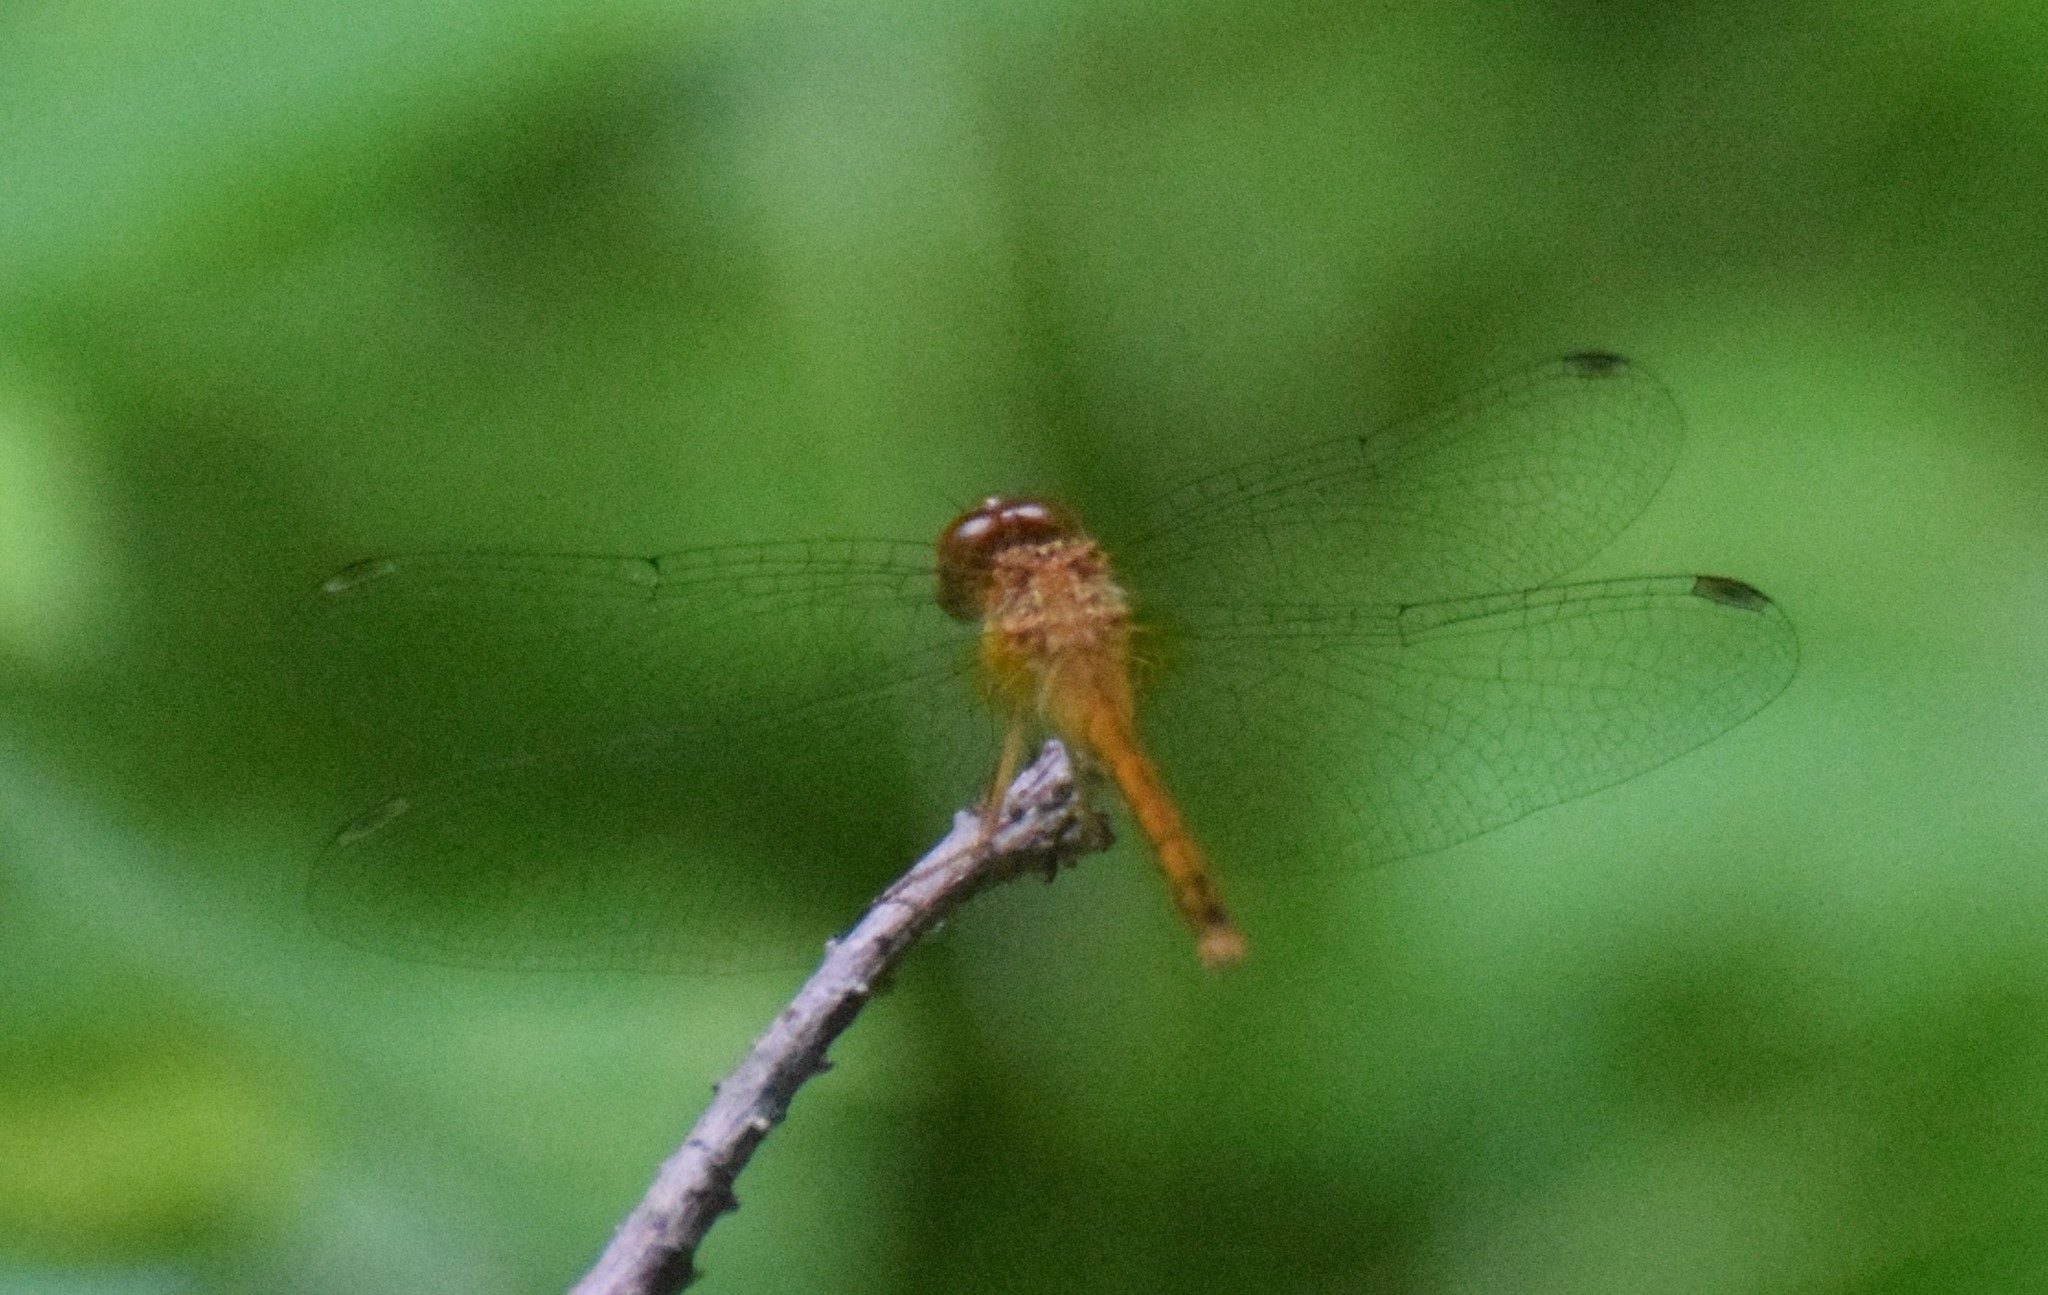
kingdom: Animalia
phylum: Arthropoda
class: Insecta
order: Odonata
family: Libellulidae
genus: Sympetrum
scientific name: Sympetrum vicinum
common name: Autumn meadowhawk
